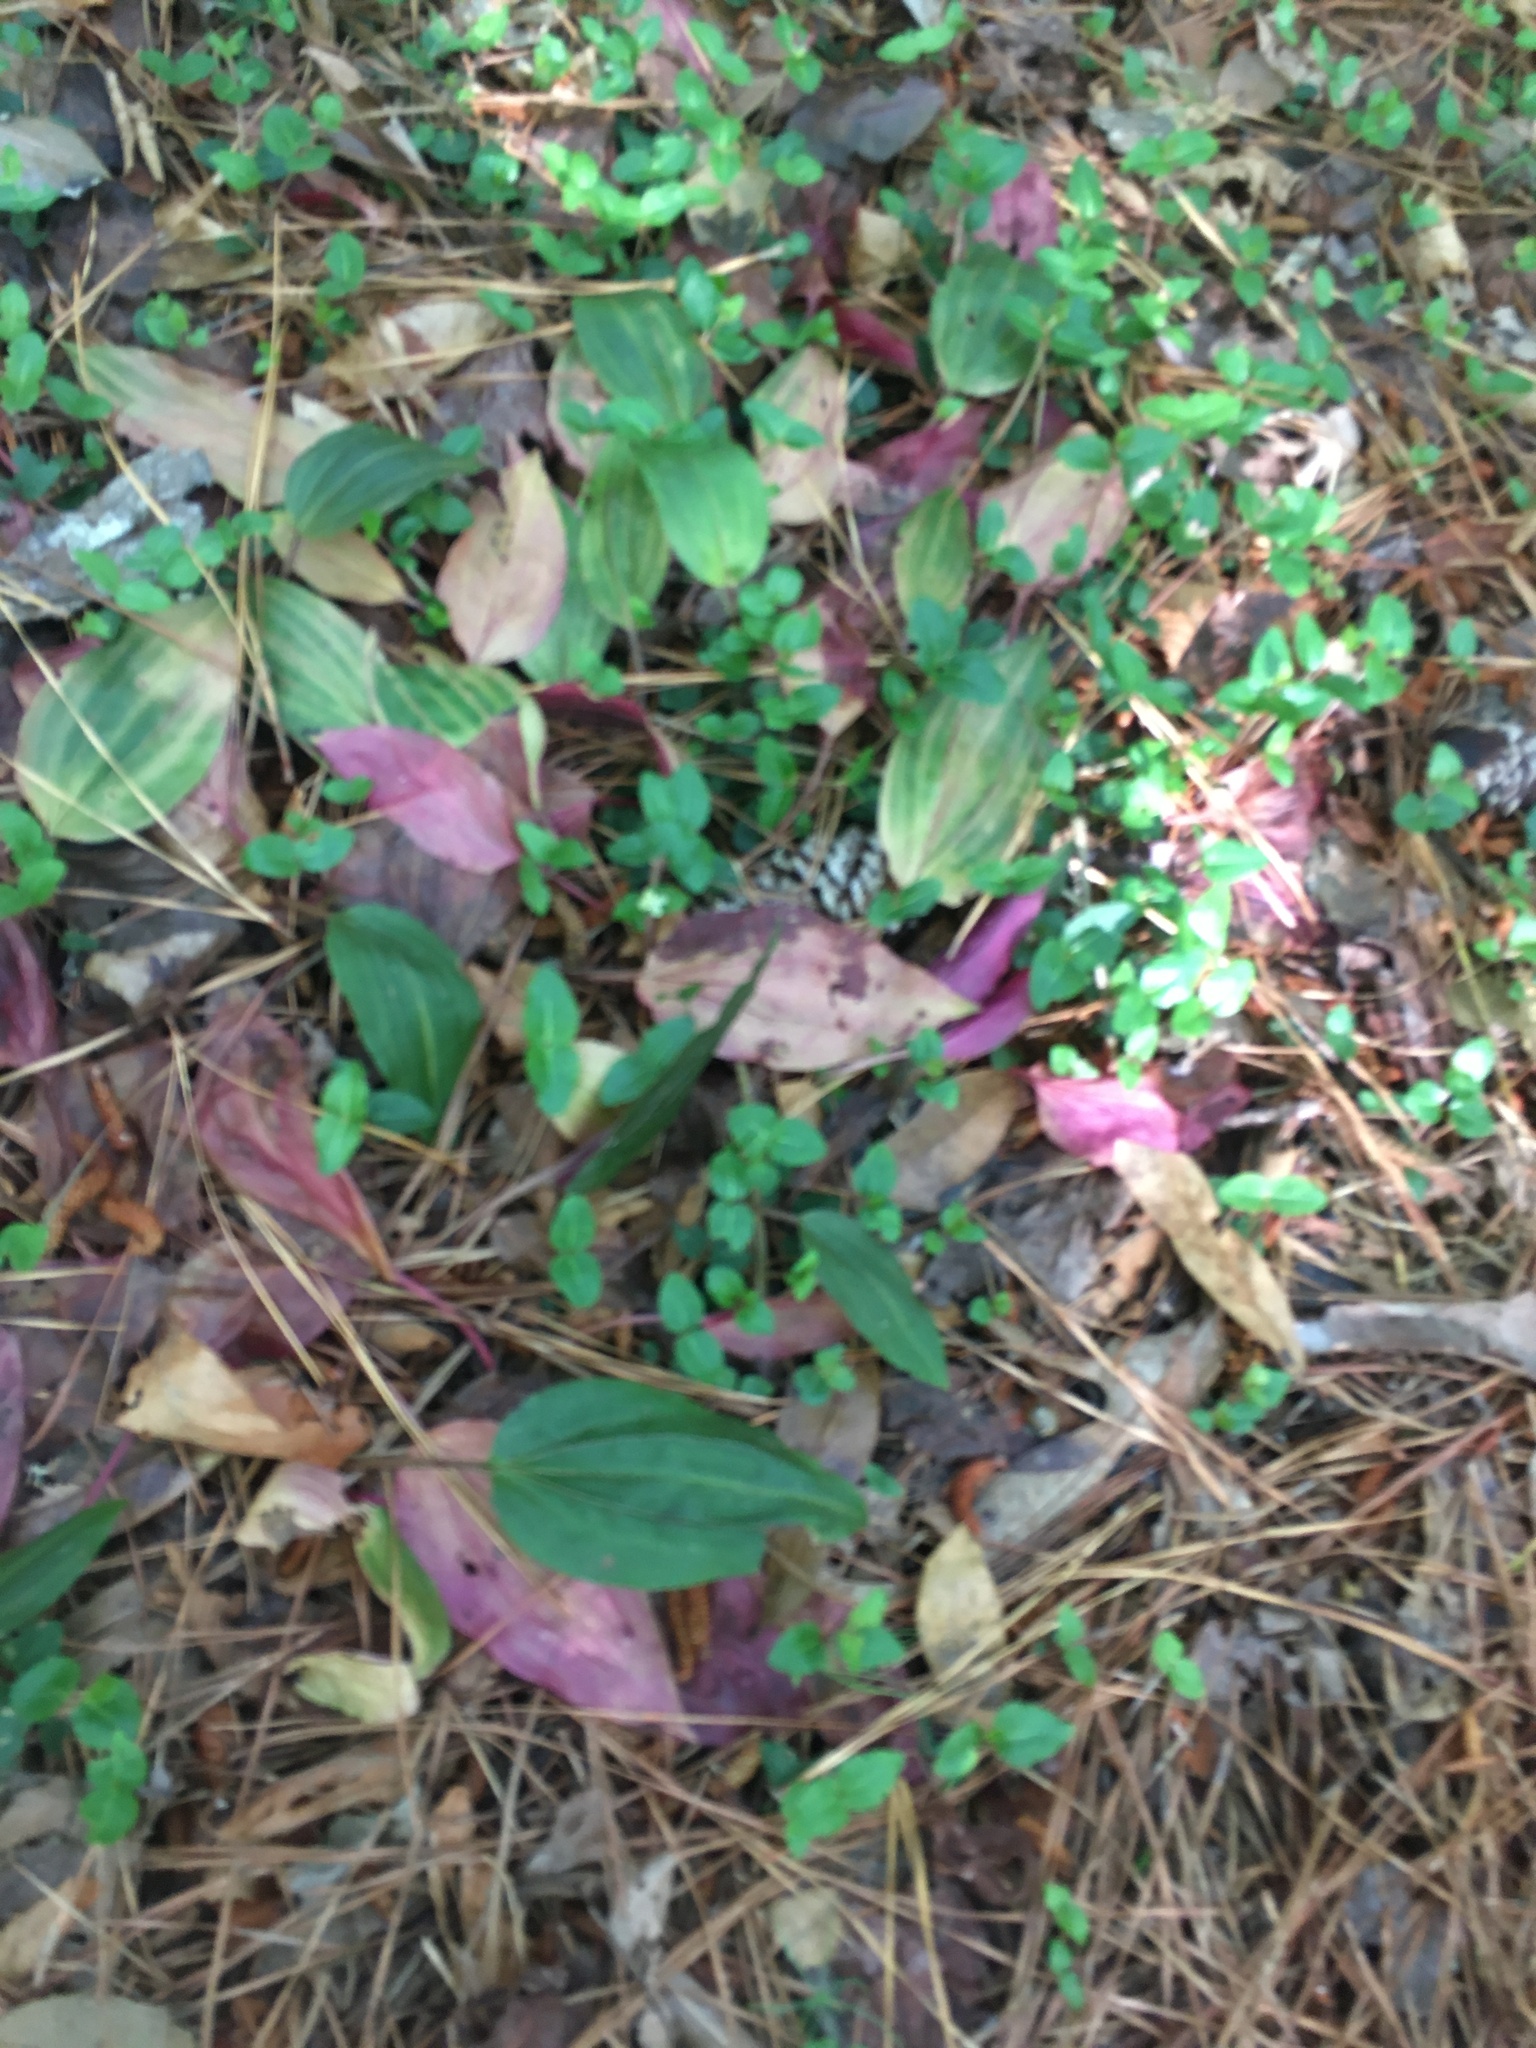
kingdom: Plantae
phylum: Tracheophyta
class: Liliopsida
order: Asparagales
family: Orchidaceae
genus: Tipularia
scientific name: Tipularia discolor
